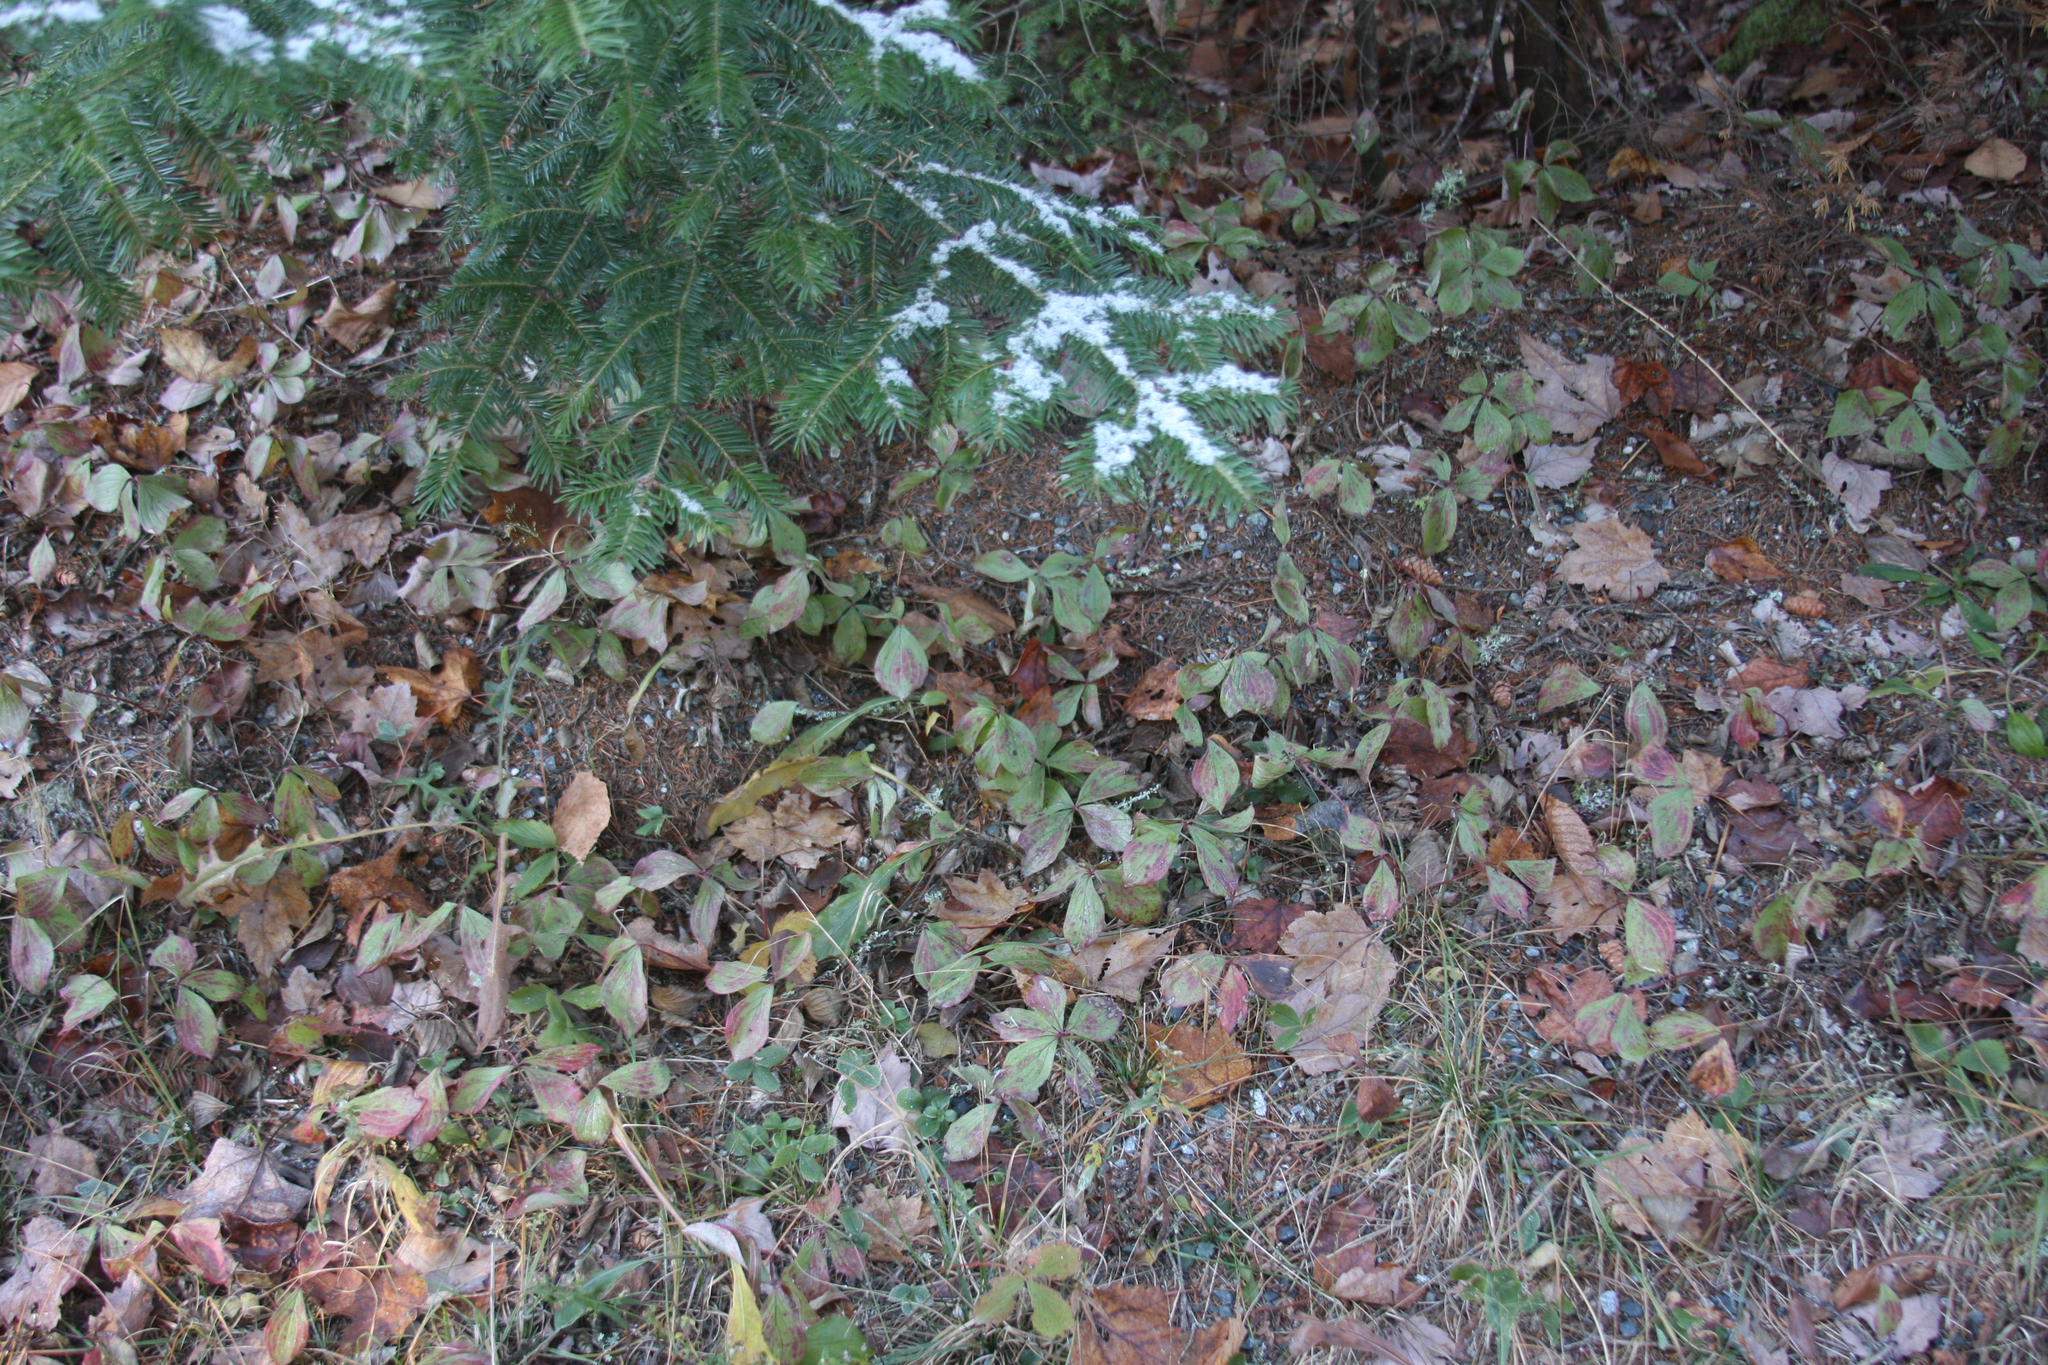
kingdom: Plantae
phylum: Tracheophyta
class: Magnoliopsida
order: Cornales
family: Cornaceae
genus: Cornus
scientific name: Cornus canadensis
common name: Creeping dogwood
